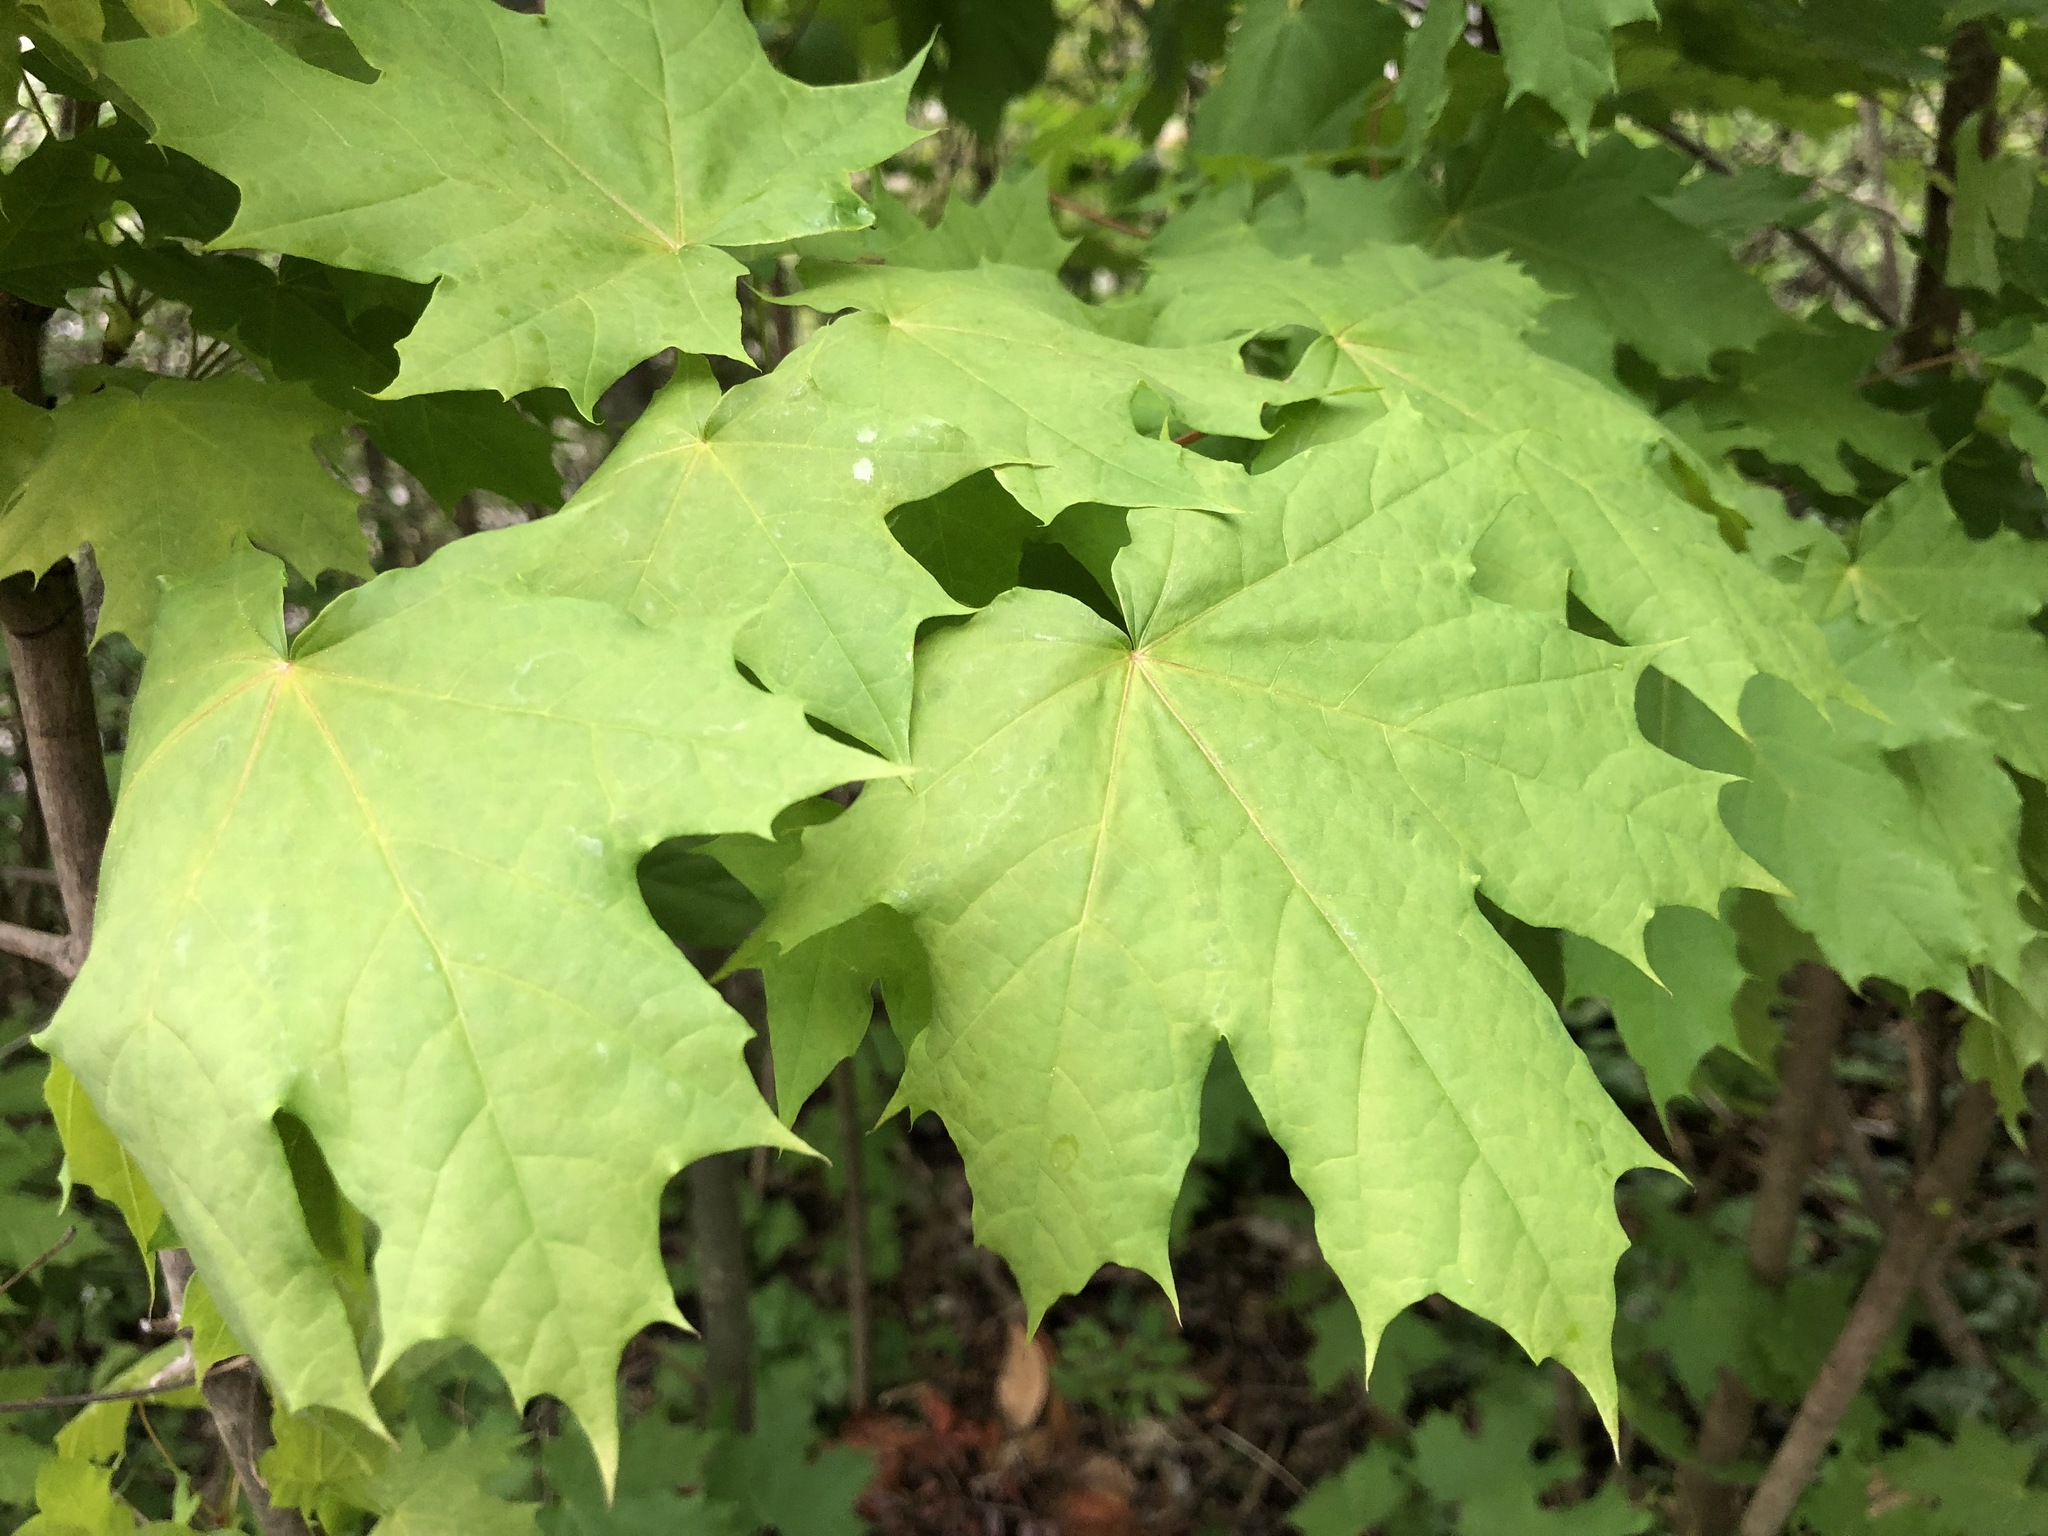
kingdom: Plantae
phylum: Tracheophyta
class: Magnoliopsida
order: Sapindales
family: Sapindaceae
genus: Acer
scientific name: Acer platanoides
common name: Norway maple
